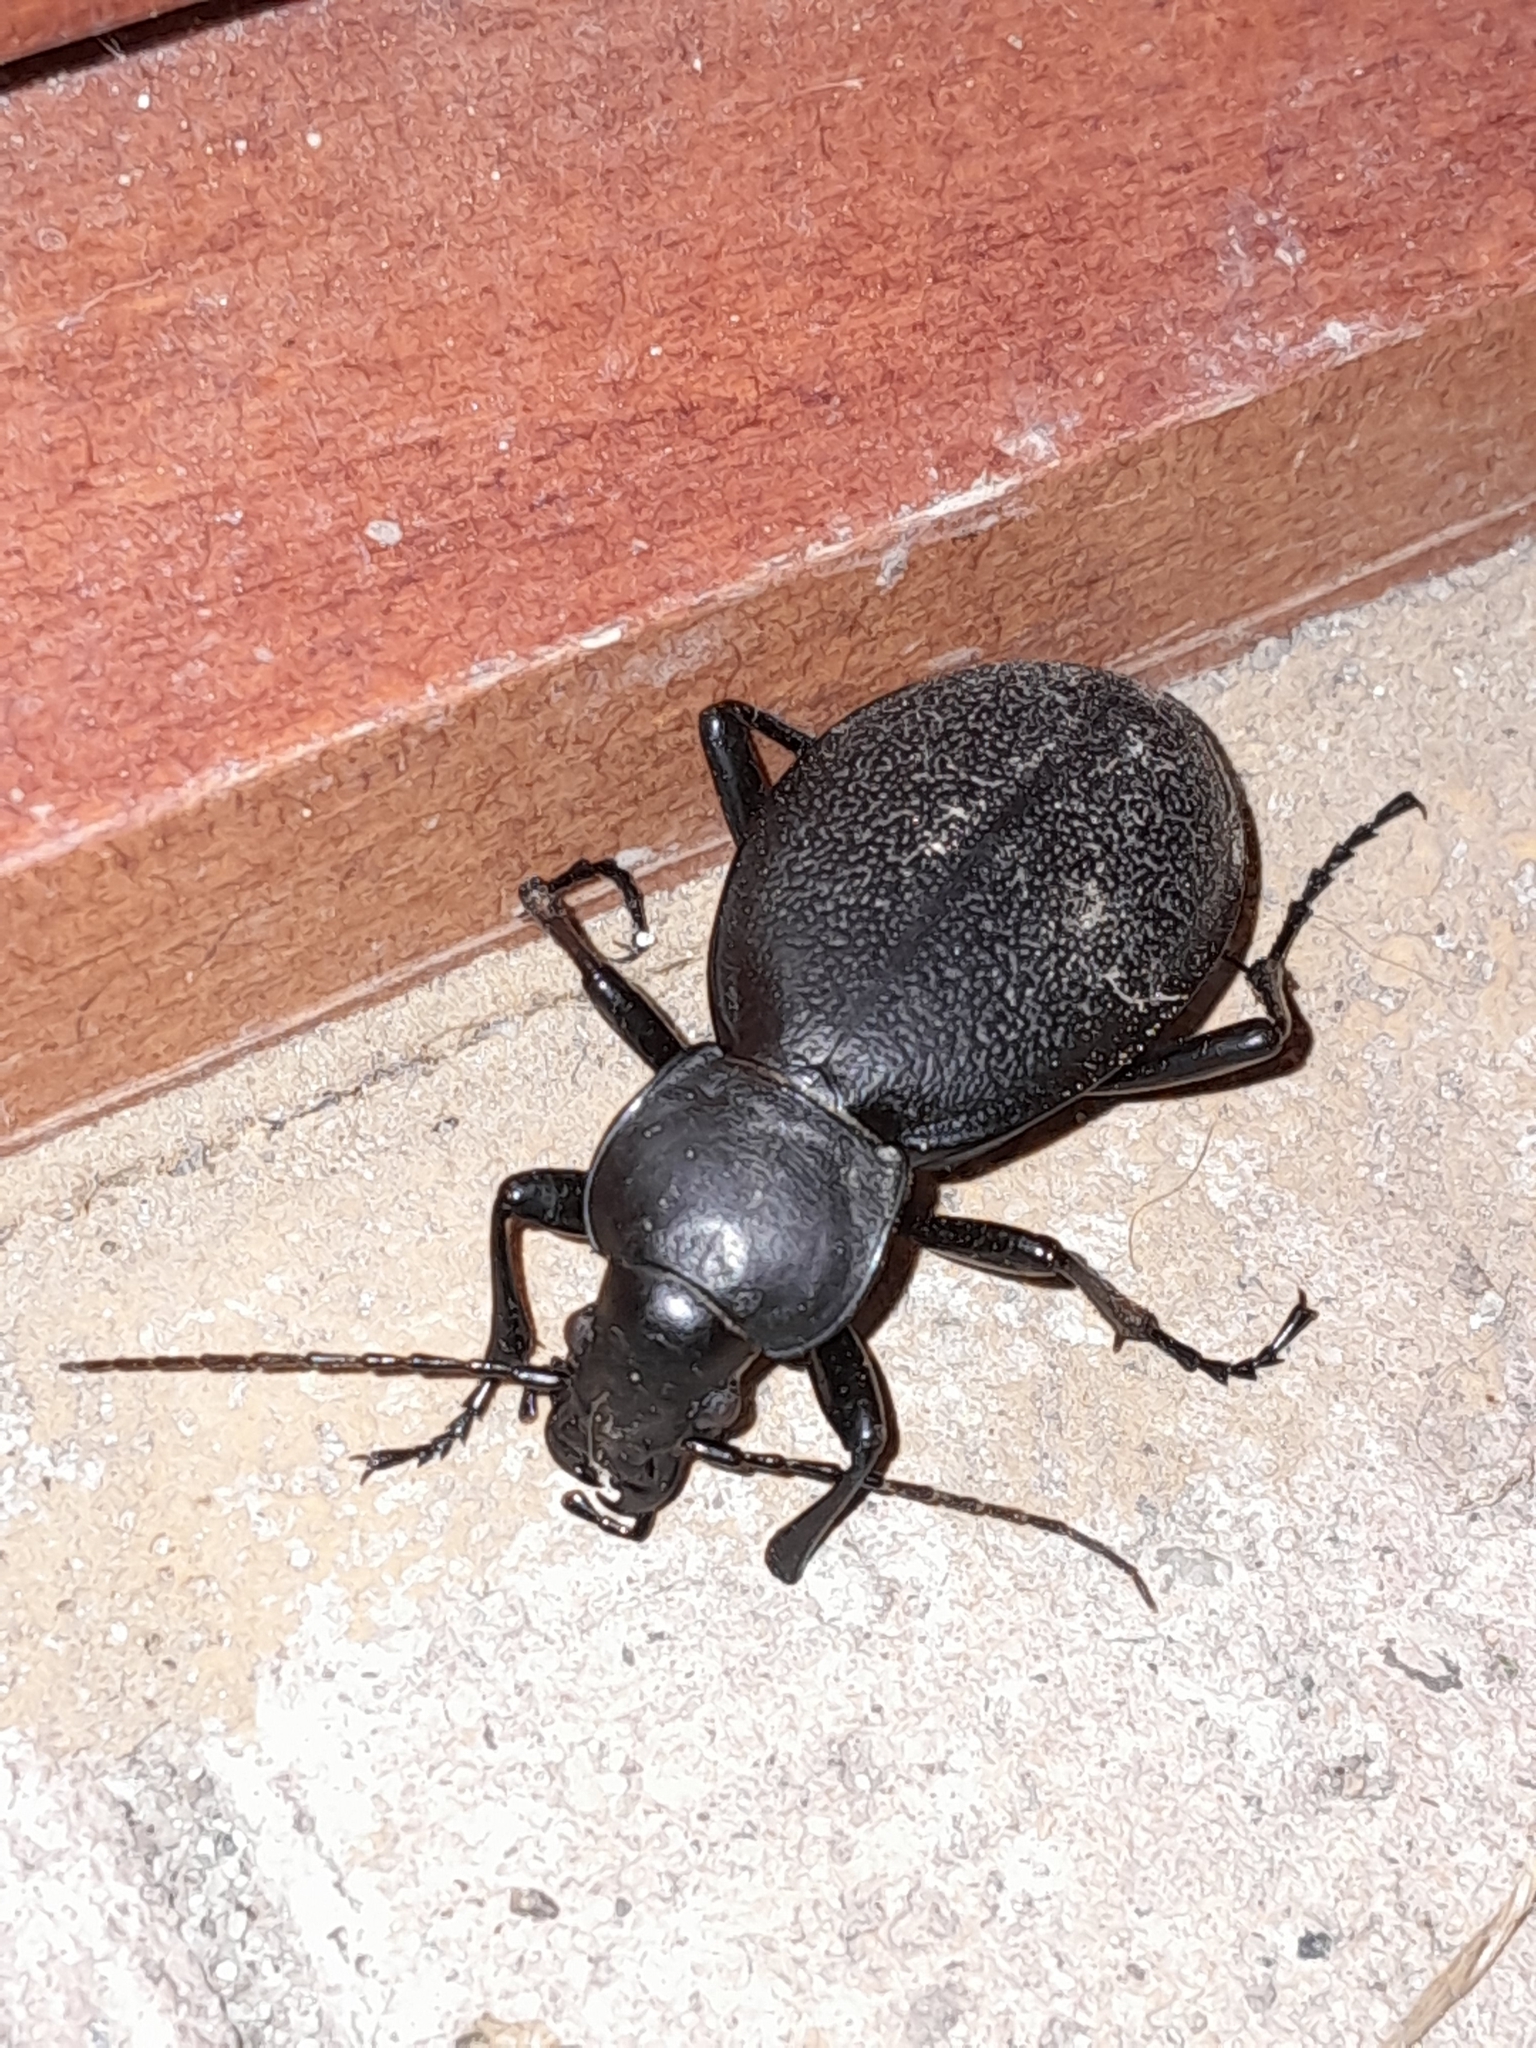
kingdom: Animalia
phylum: Arthropoda
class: Insecta
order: Coleoptera
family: Carabidae
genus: Carabus
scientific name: Carabus coriaceus
